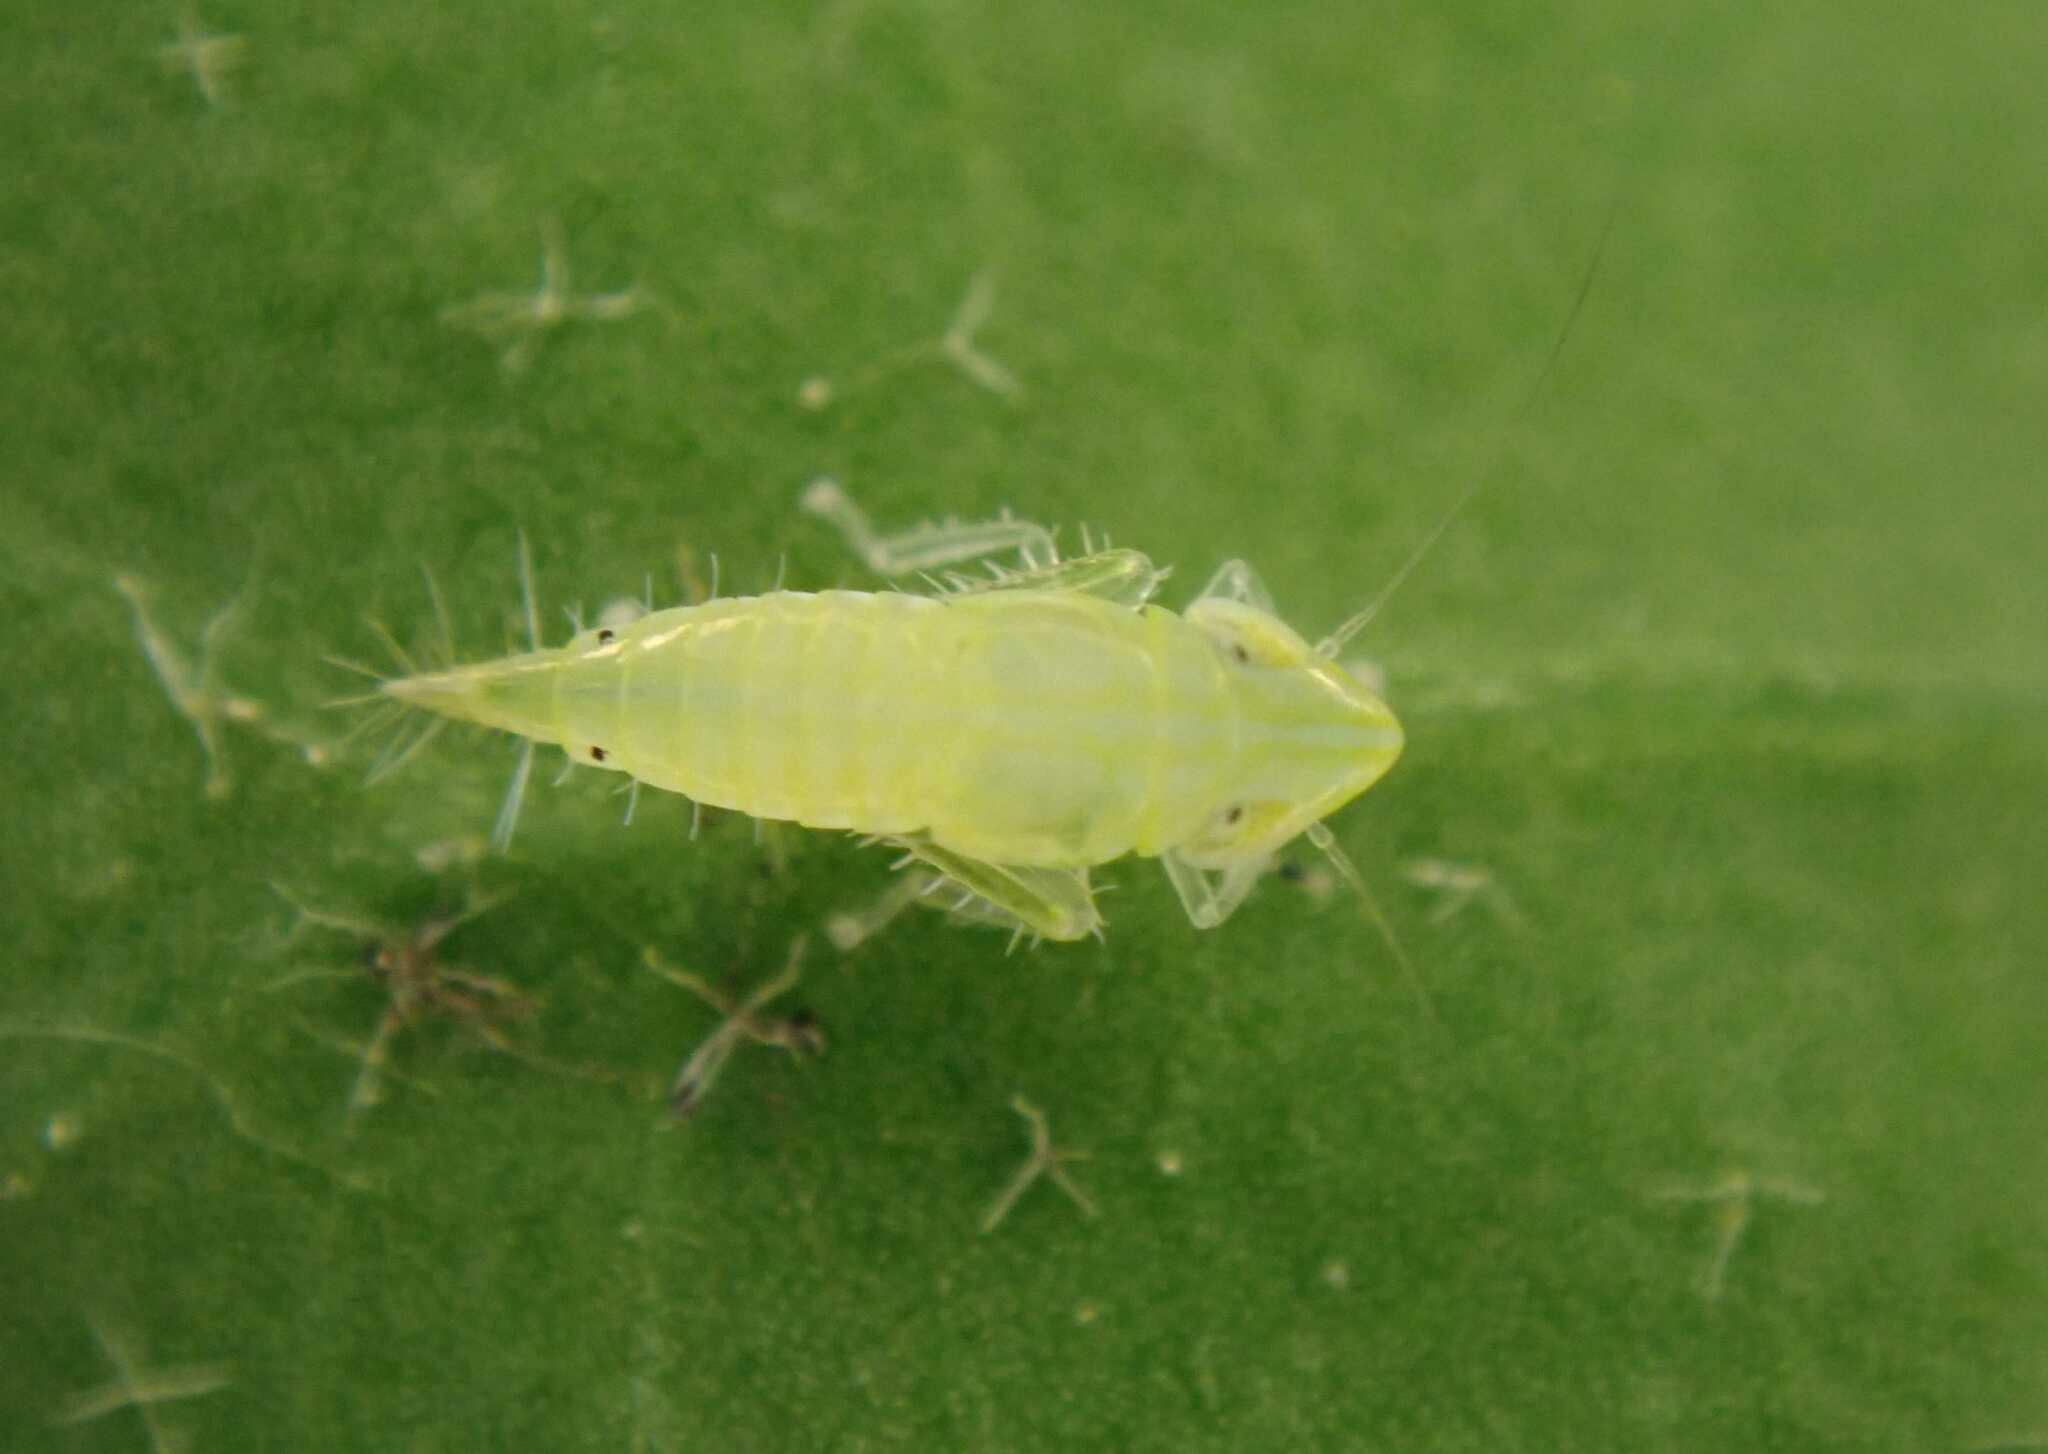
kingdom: Animalia
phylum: Arthropoda
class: Insecta
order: Hemiptera
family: Cicadellidae
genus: Synophropsis
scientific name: Synophropsis lauri
